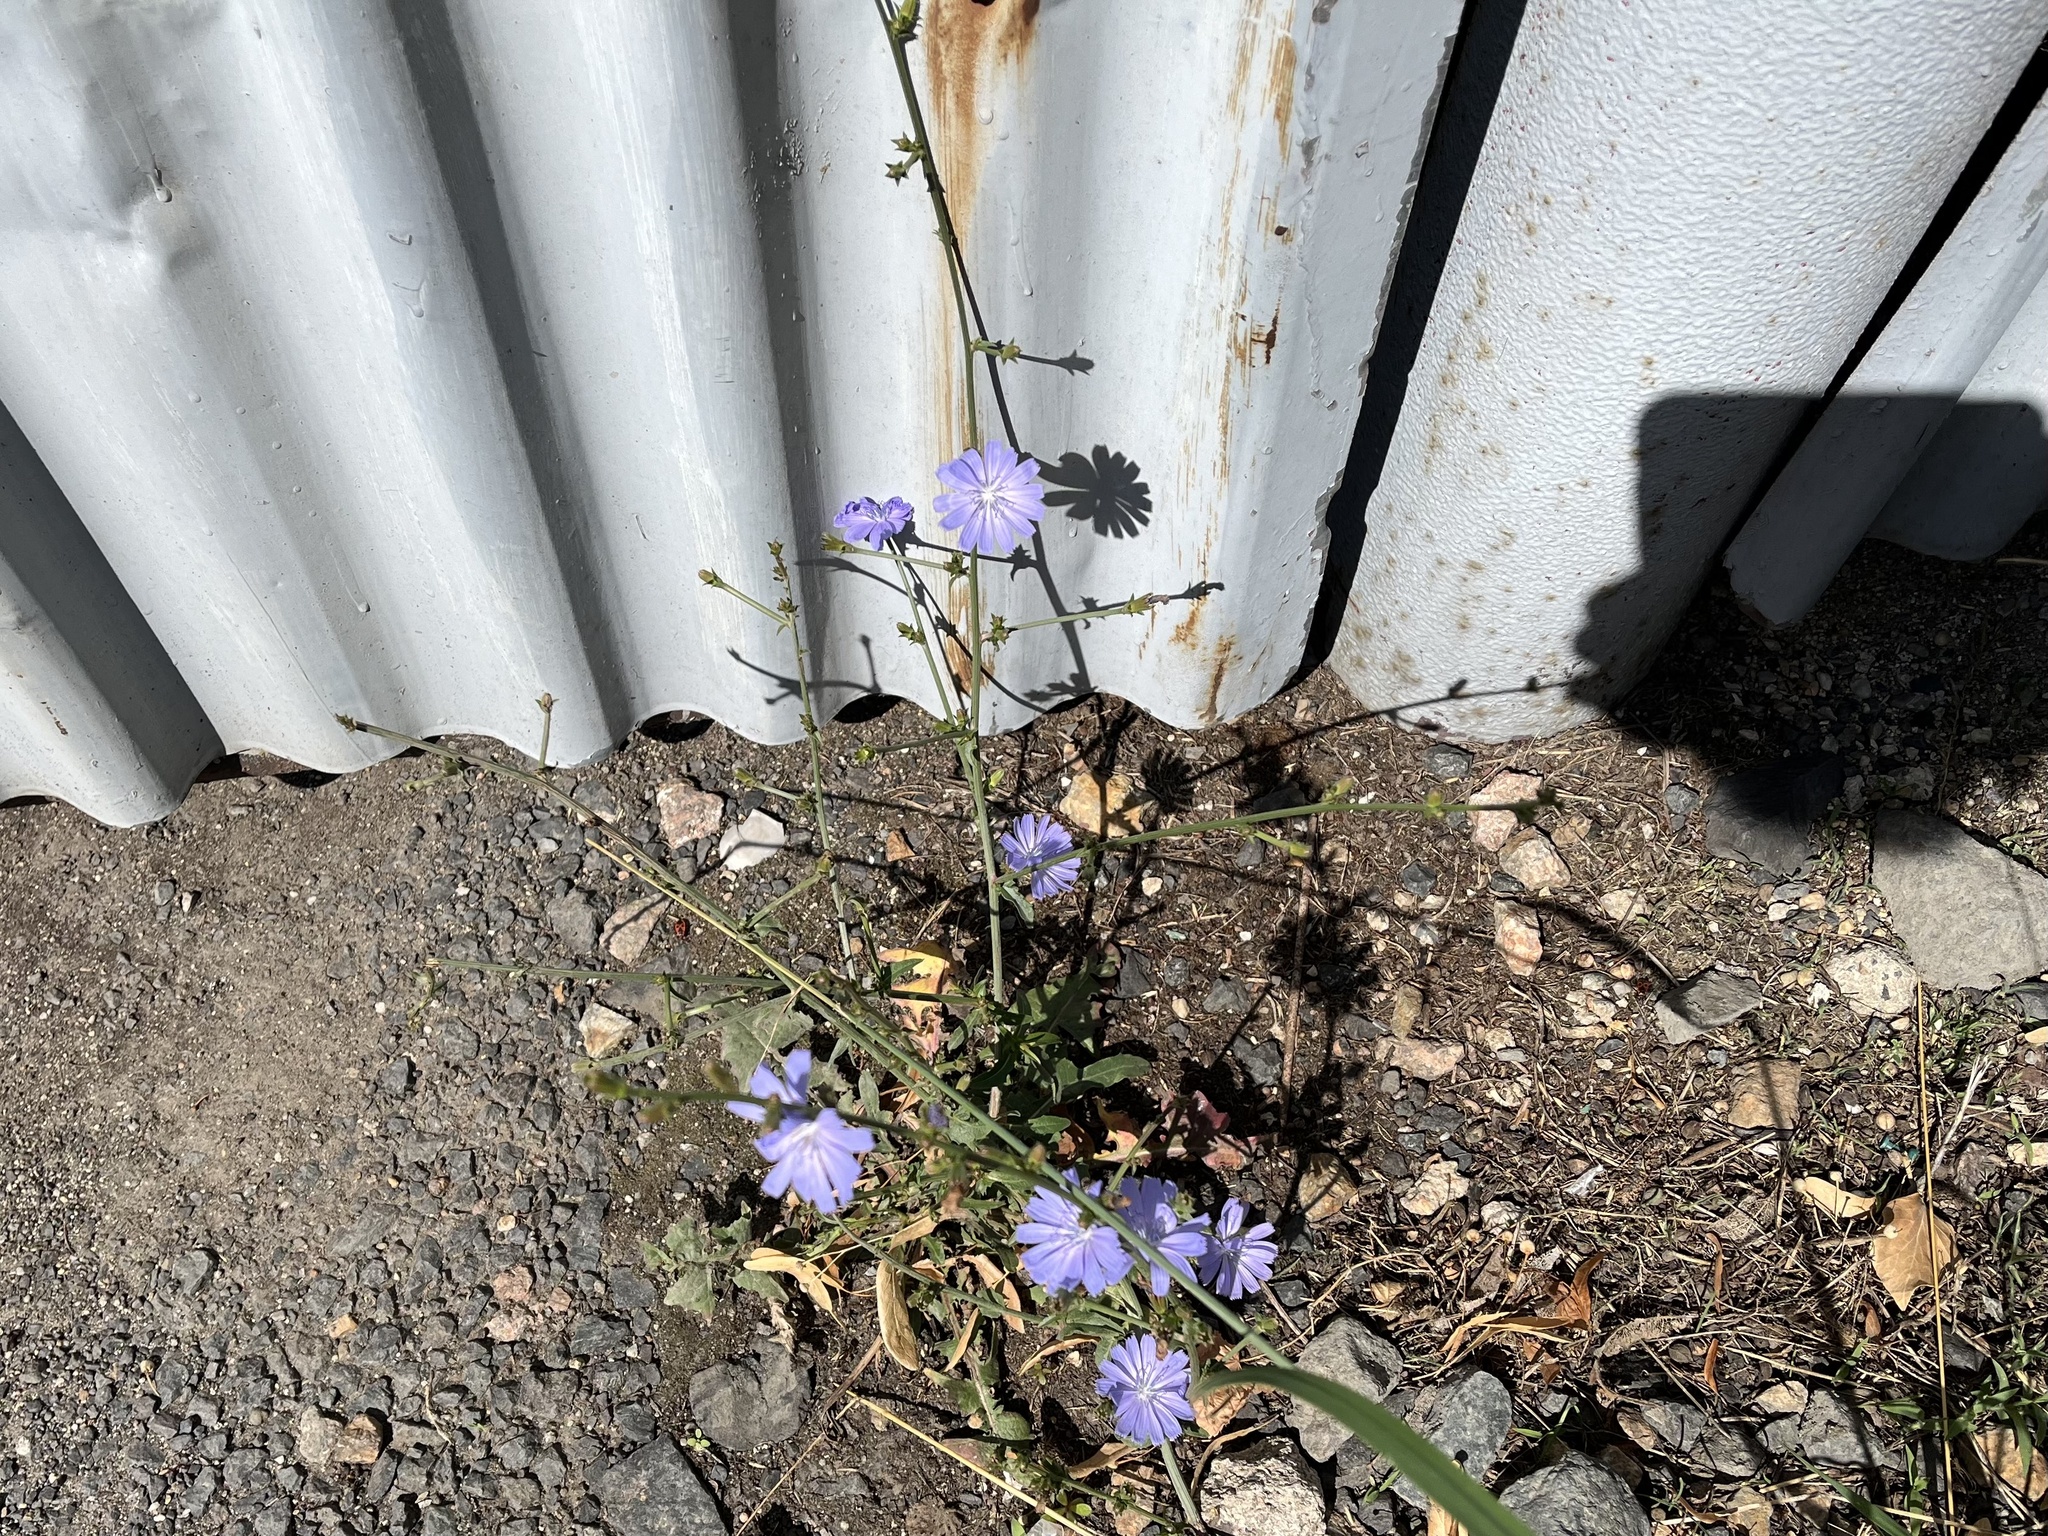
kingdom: Plantae
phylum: Tracheophyta
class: Magnoliopsida
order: Asterales
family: Asteraceae
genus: Cichorium
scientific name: Cichorium intybus
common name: Chicory
